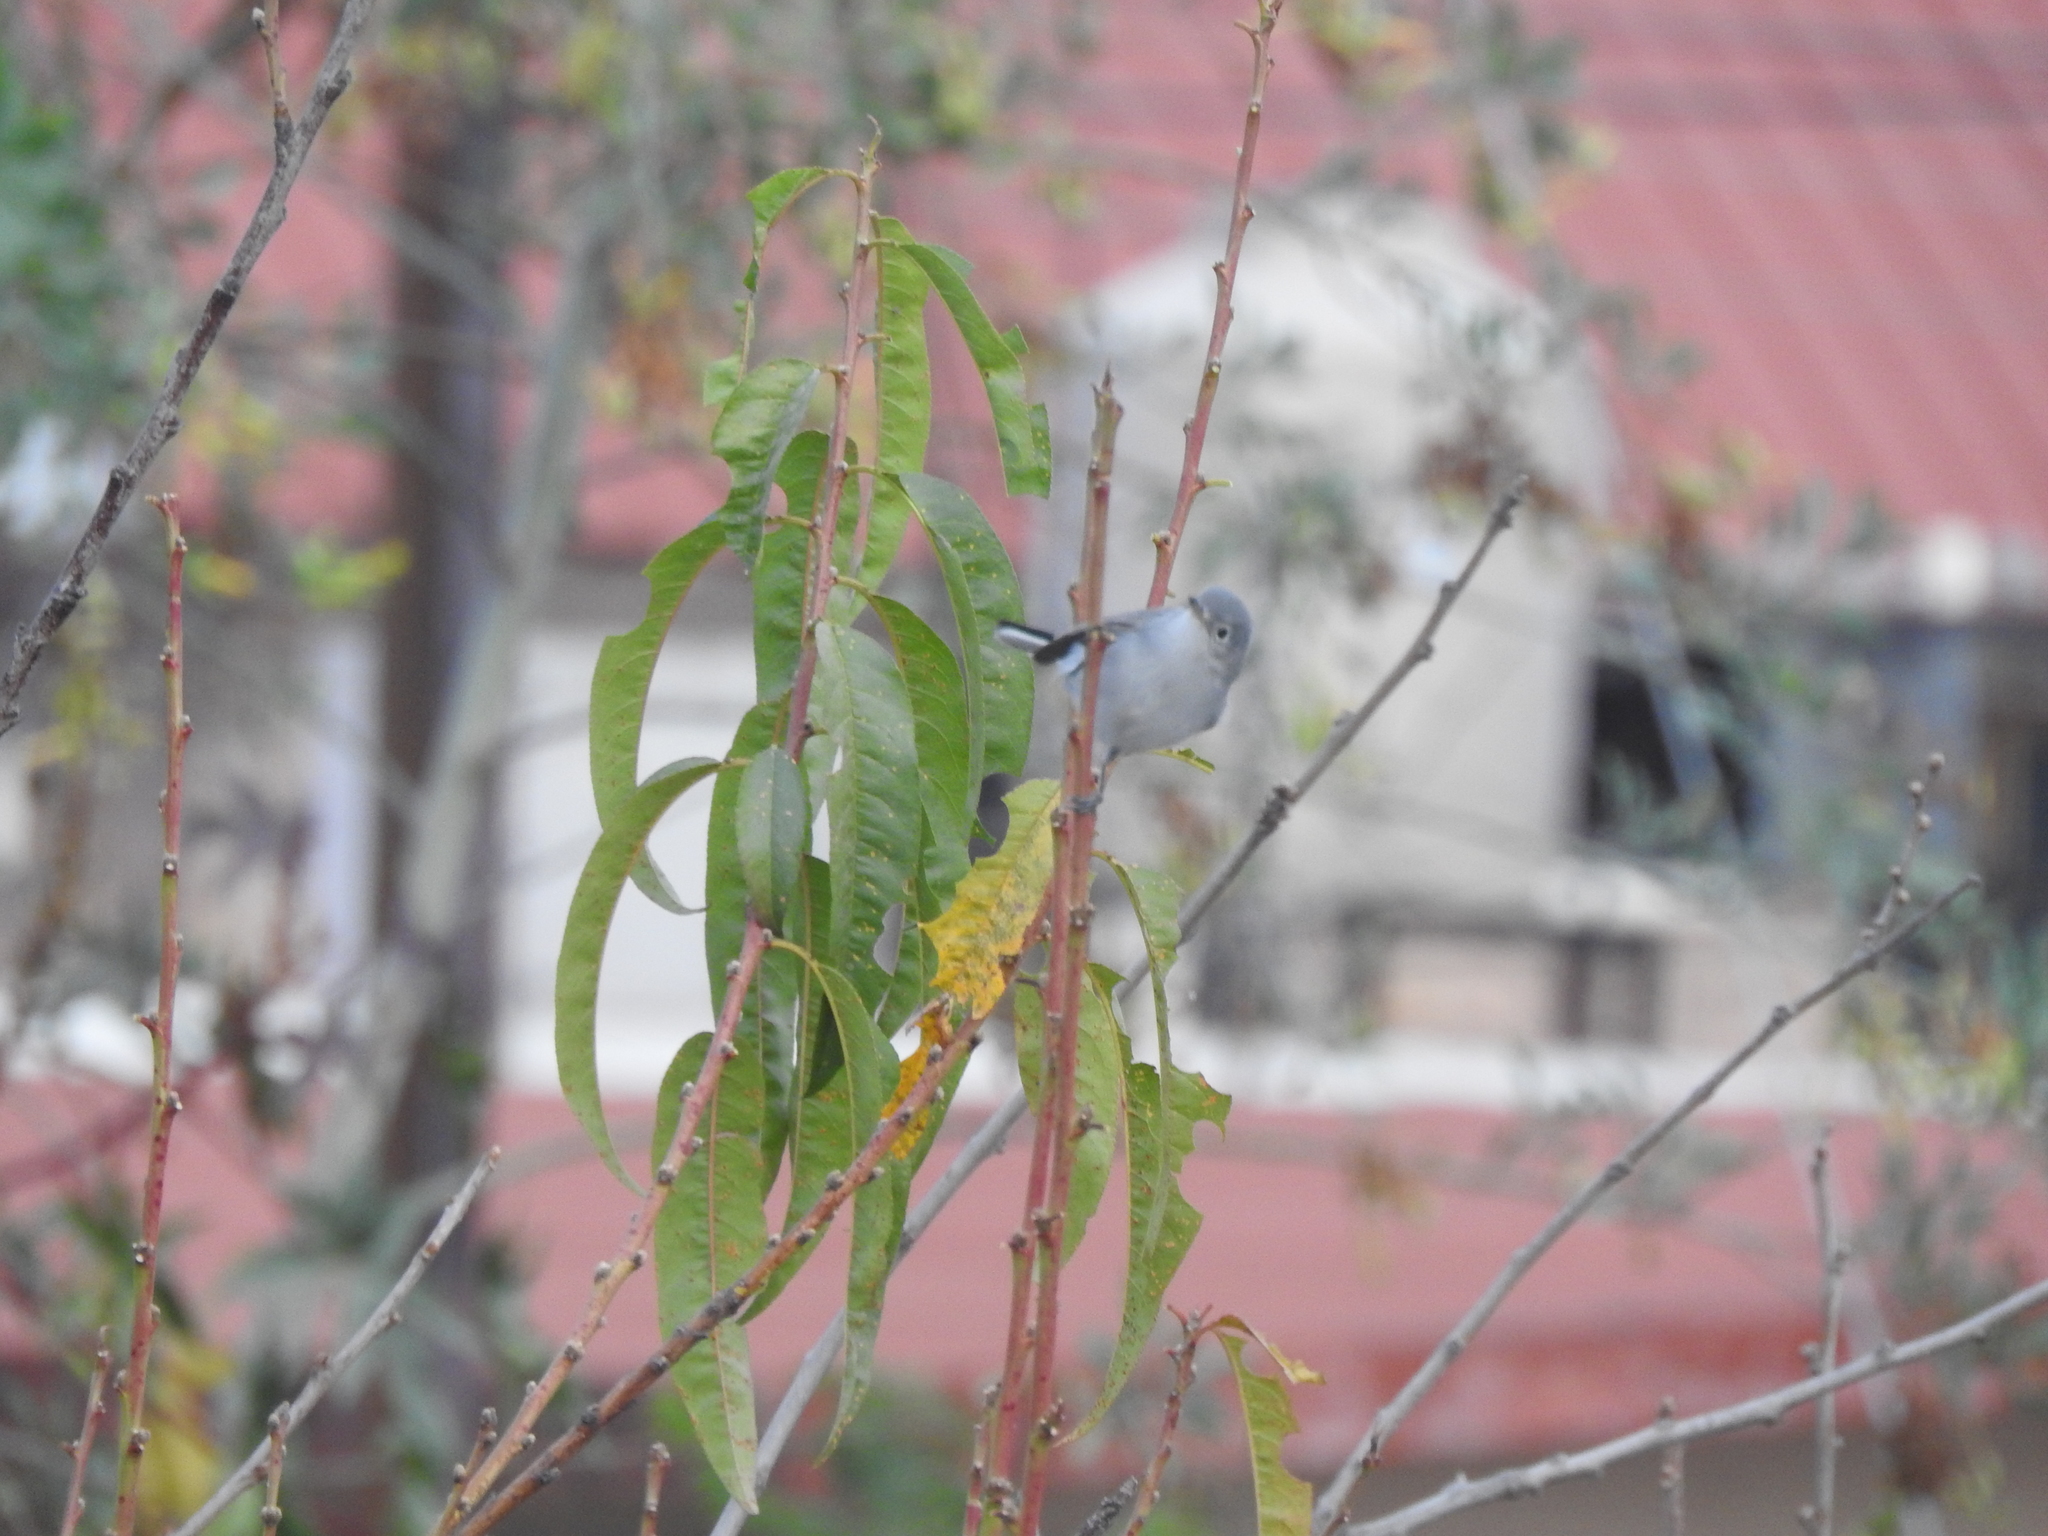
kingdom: Animalia
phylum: Chordata
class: Aves
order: Passeriformes
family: Polioptilidae
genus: Polioptila
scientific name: Polioptila caerulea
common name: Blue-gray gnatcatcher
